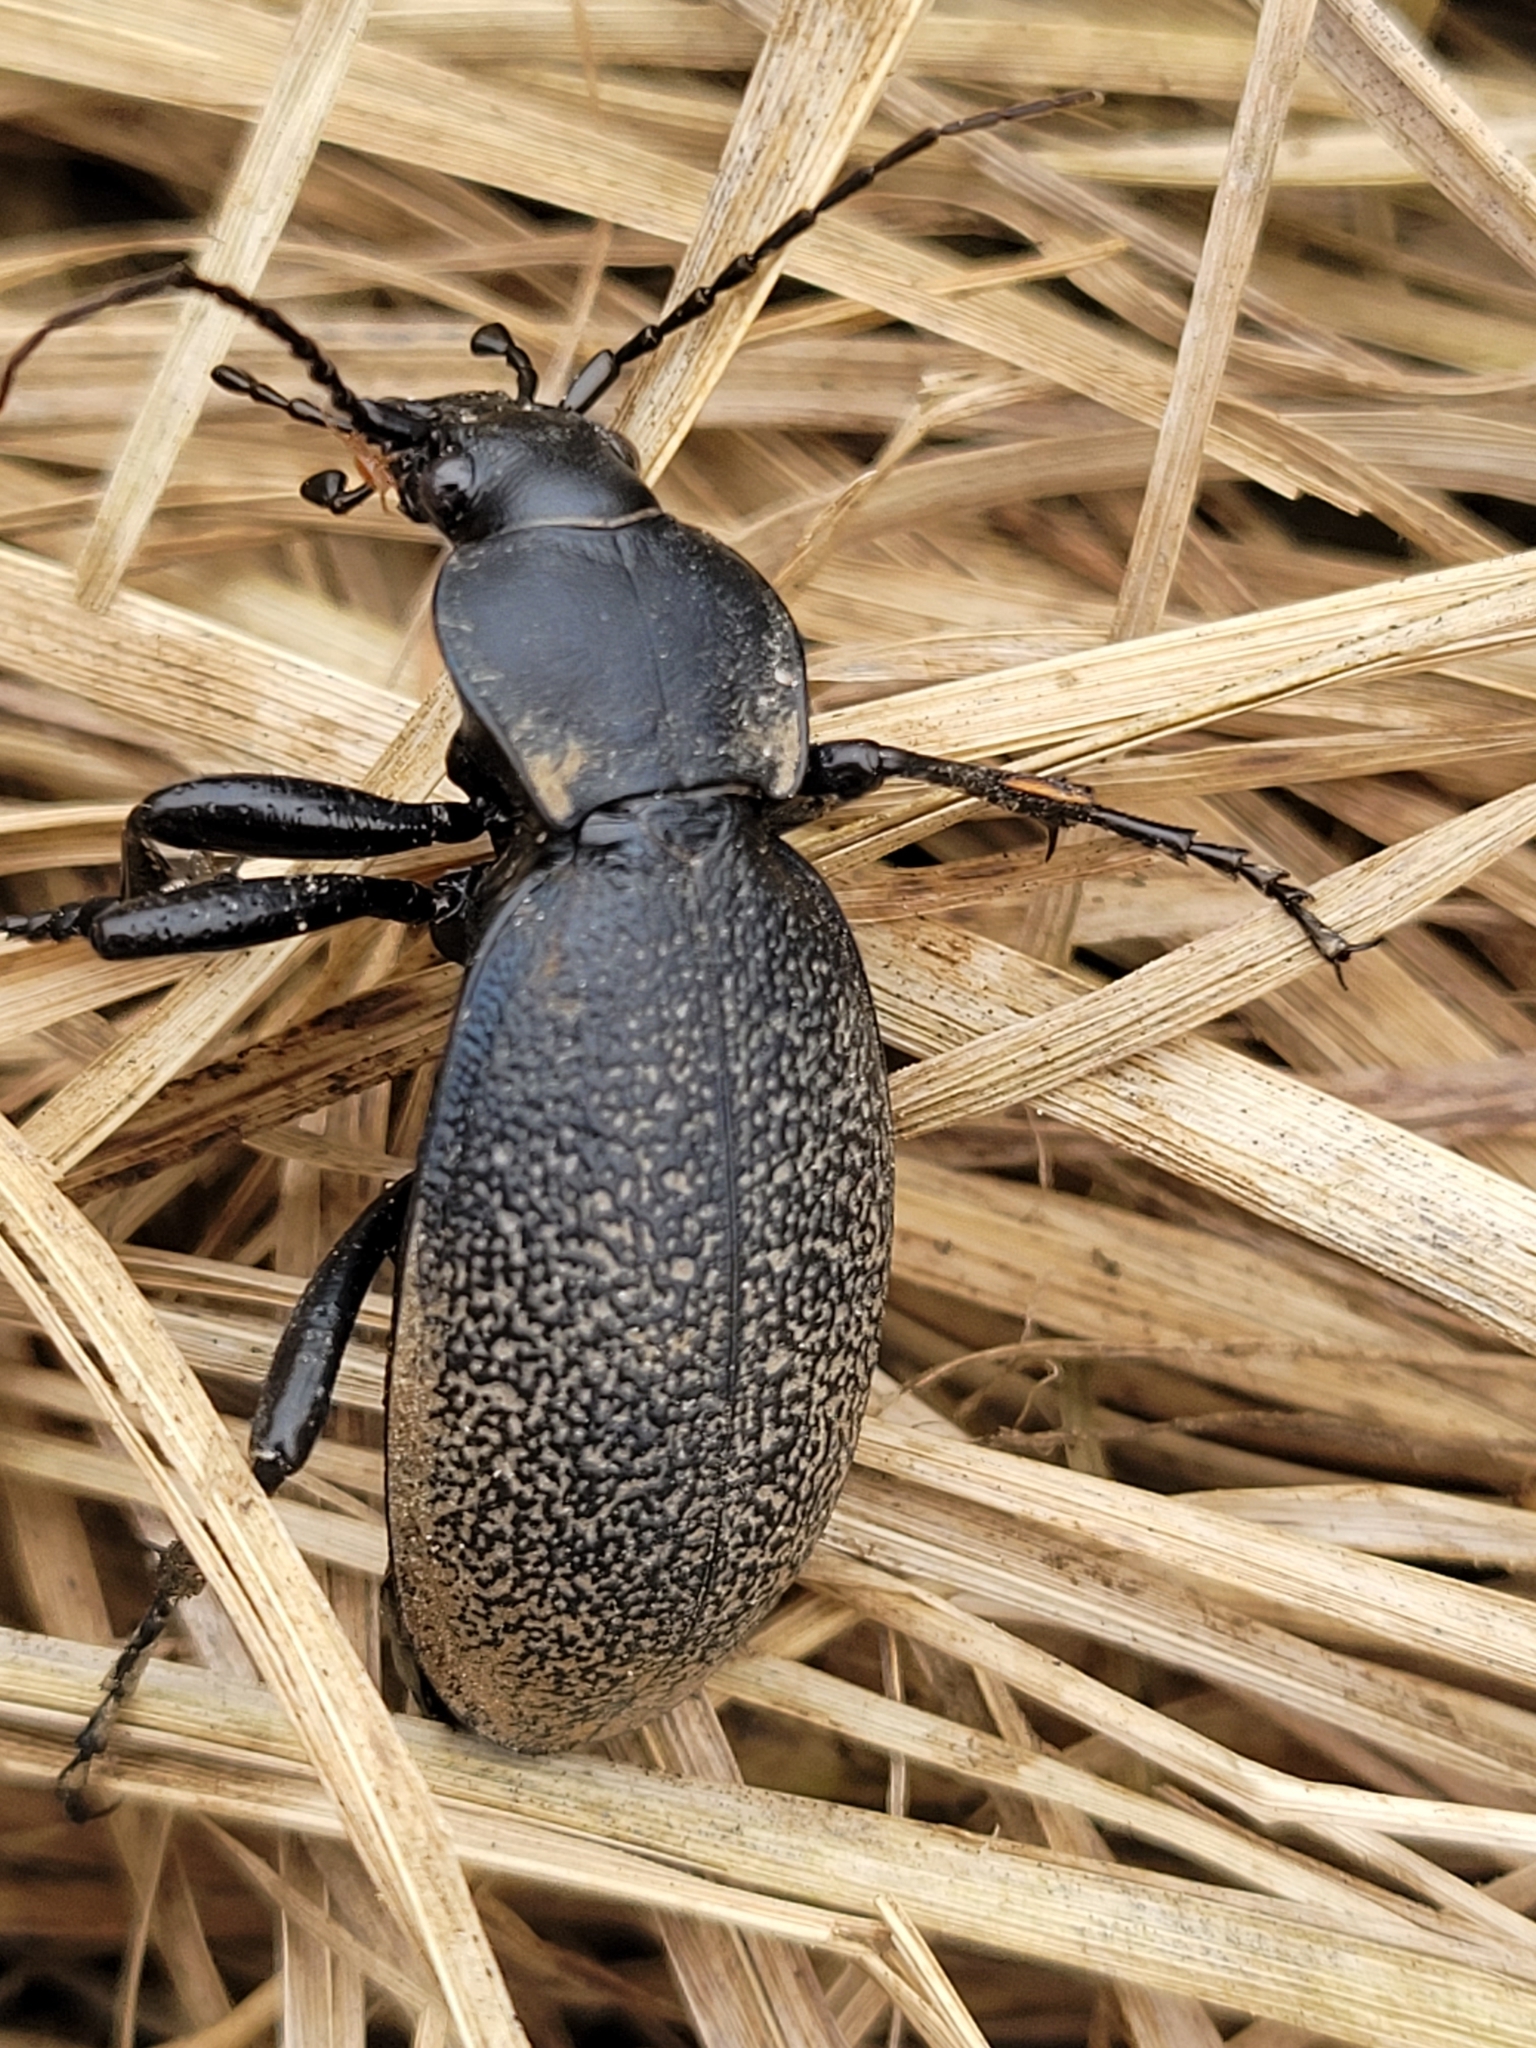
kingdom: Animalia
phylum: Arthropoda
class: Insecta
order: Coleoptera
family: Carabidae
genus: Carabus
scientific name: Carabus coriaceus
